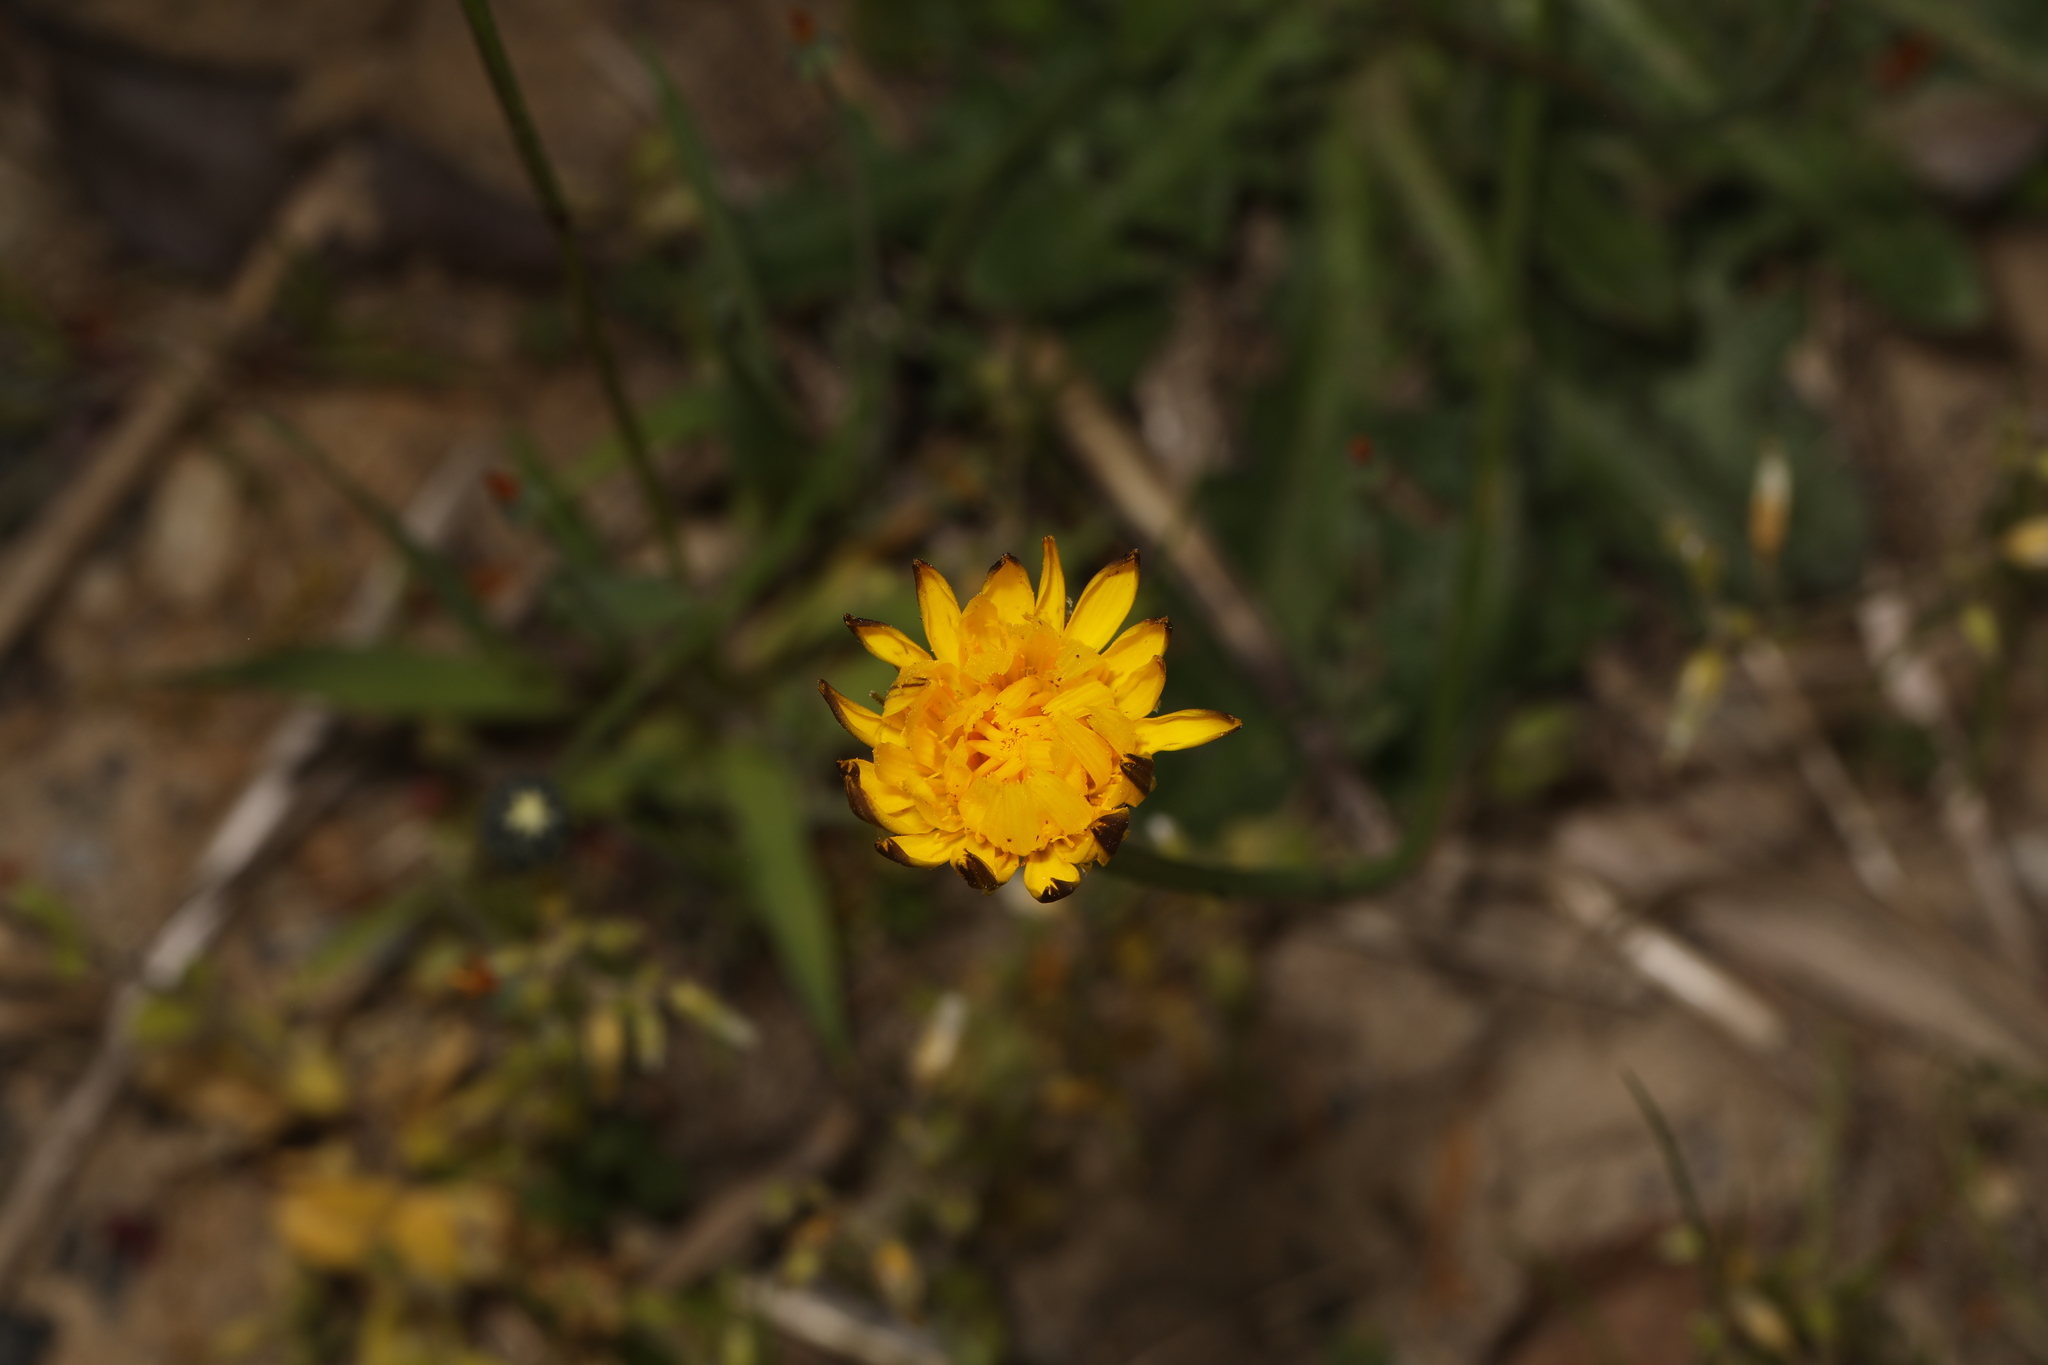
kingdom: Plantae
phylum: Tracheophyta
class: Magnoliopsida
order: Asterales
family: Asteraceae
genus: Hypochaeris
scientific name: Hypochaeris radicata
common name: Flatweed
